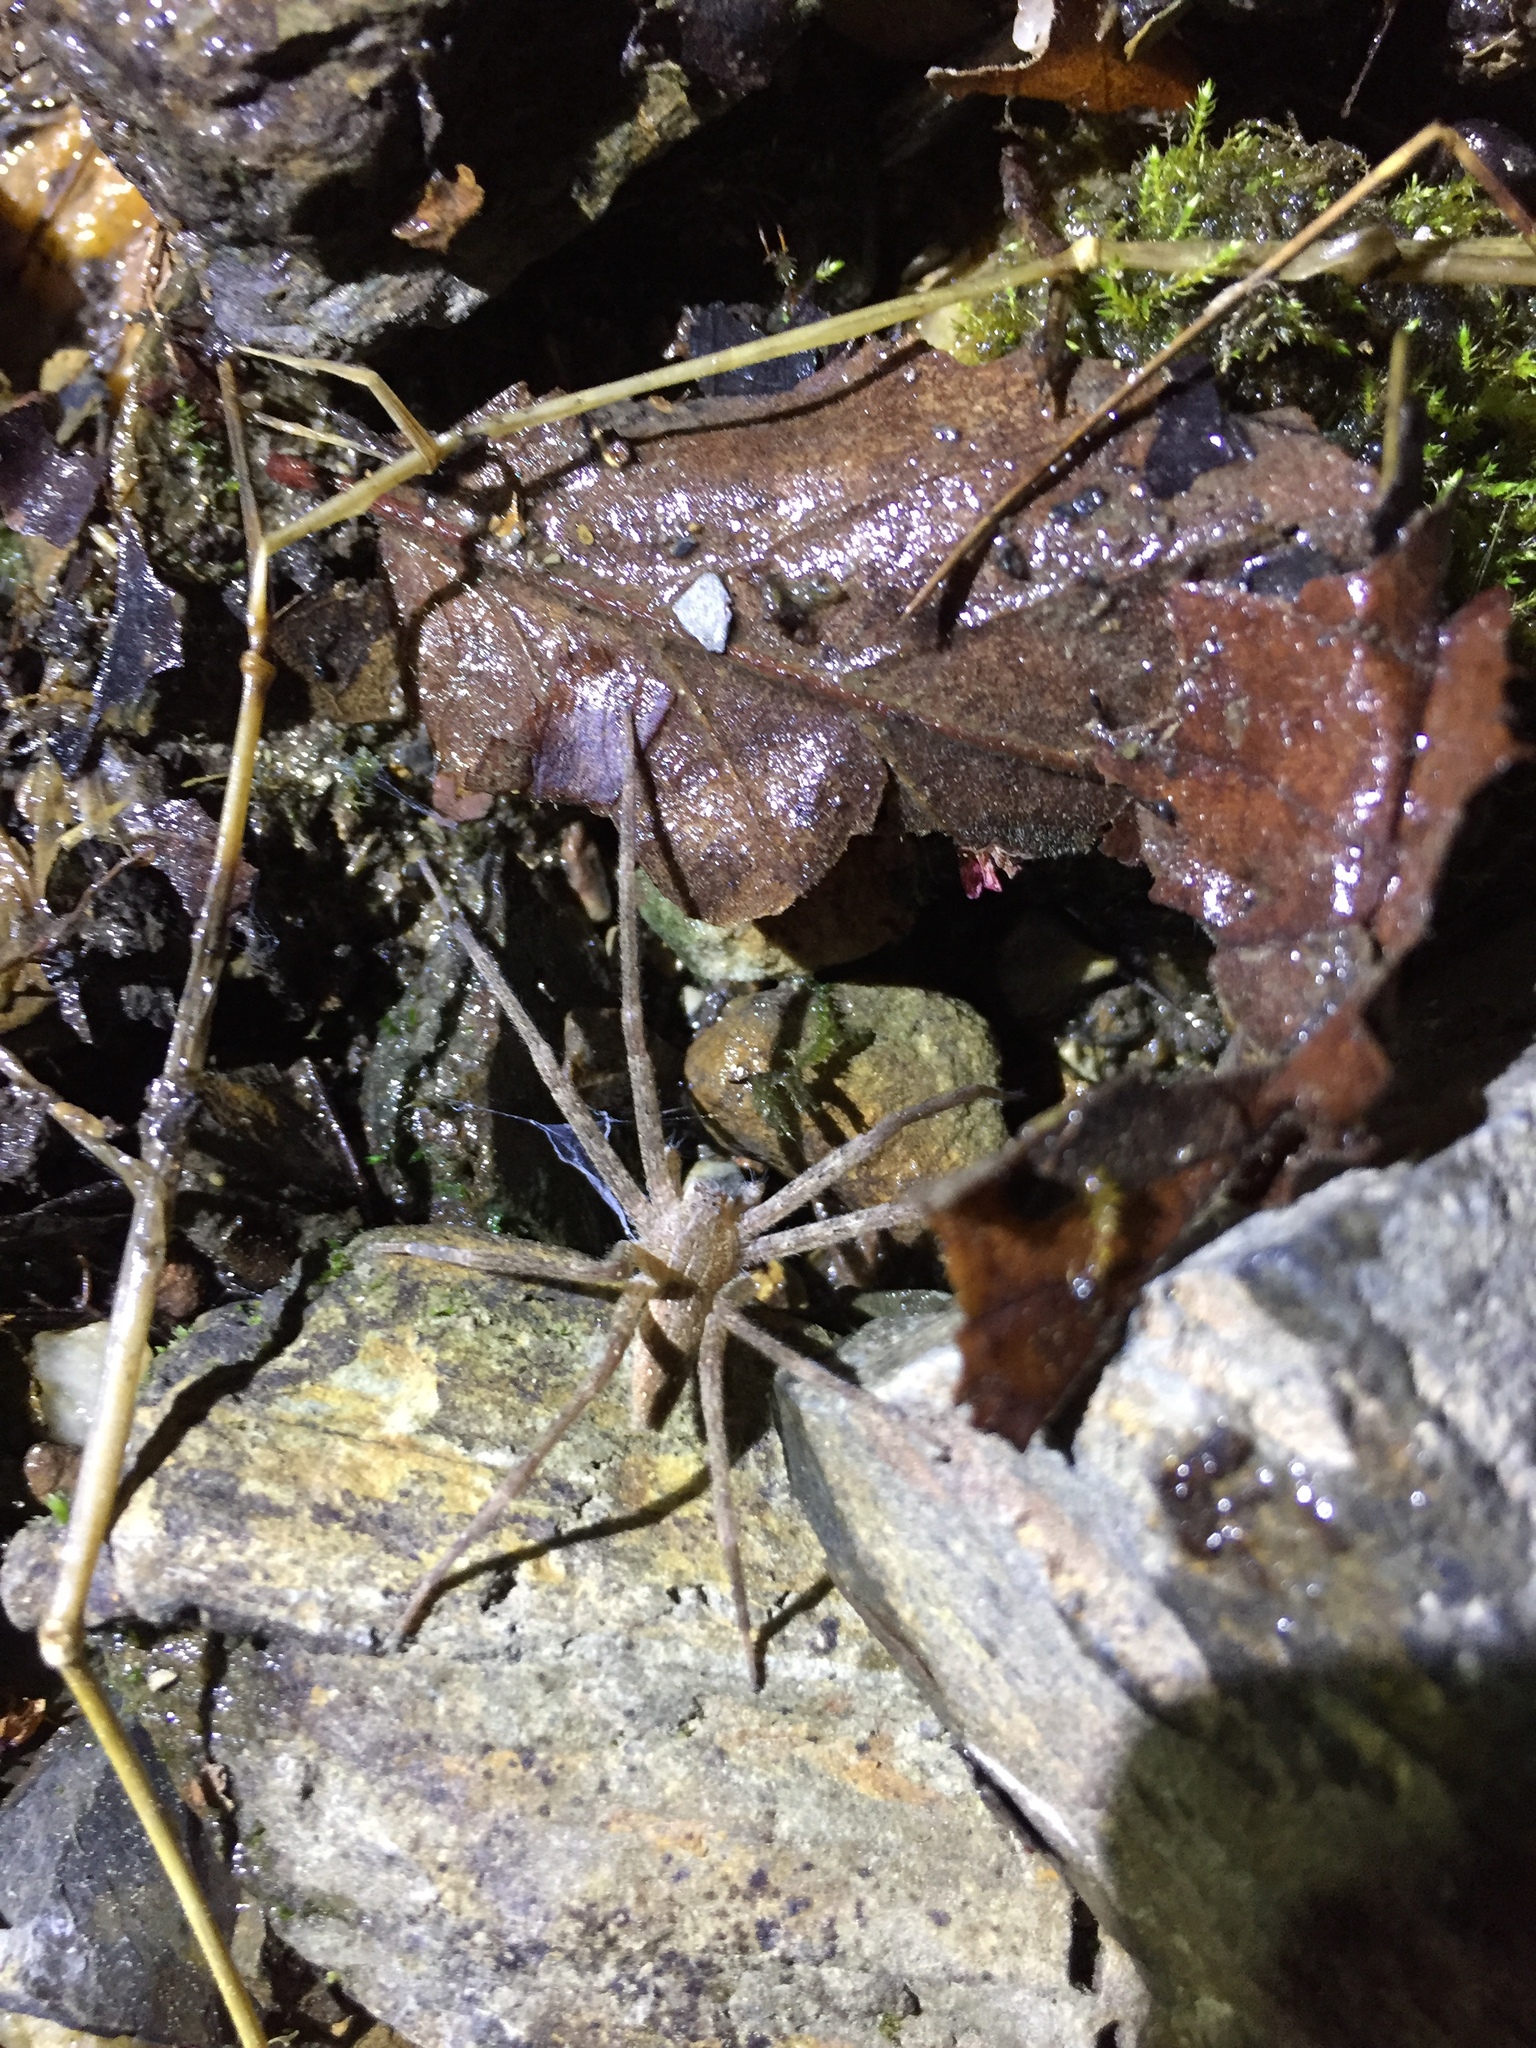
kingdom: Animalia
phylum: Arthropoda
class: Arachnida
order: Araneae
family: Pisauridae
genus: Pisaurina
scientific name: Pisaurina mira
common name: American nursery web spider
